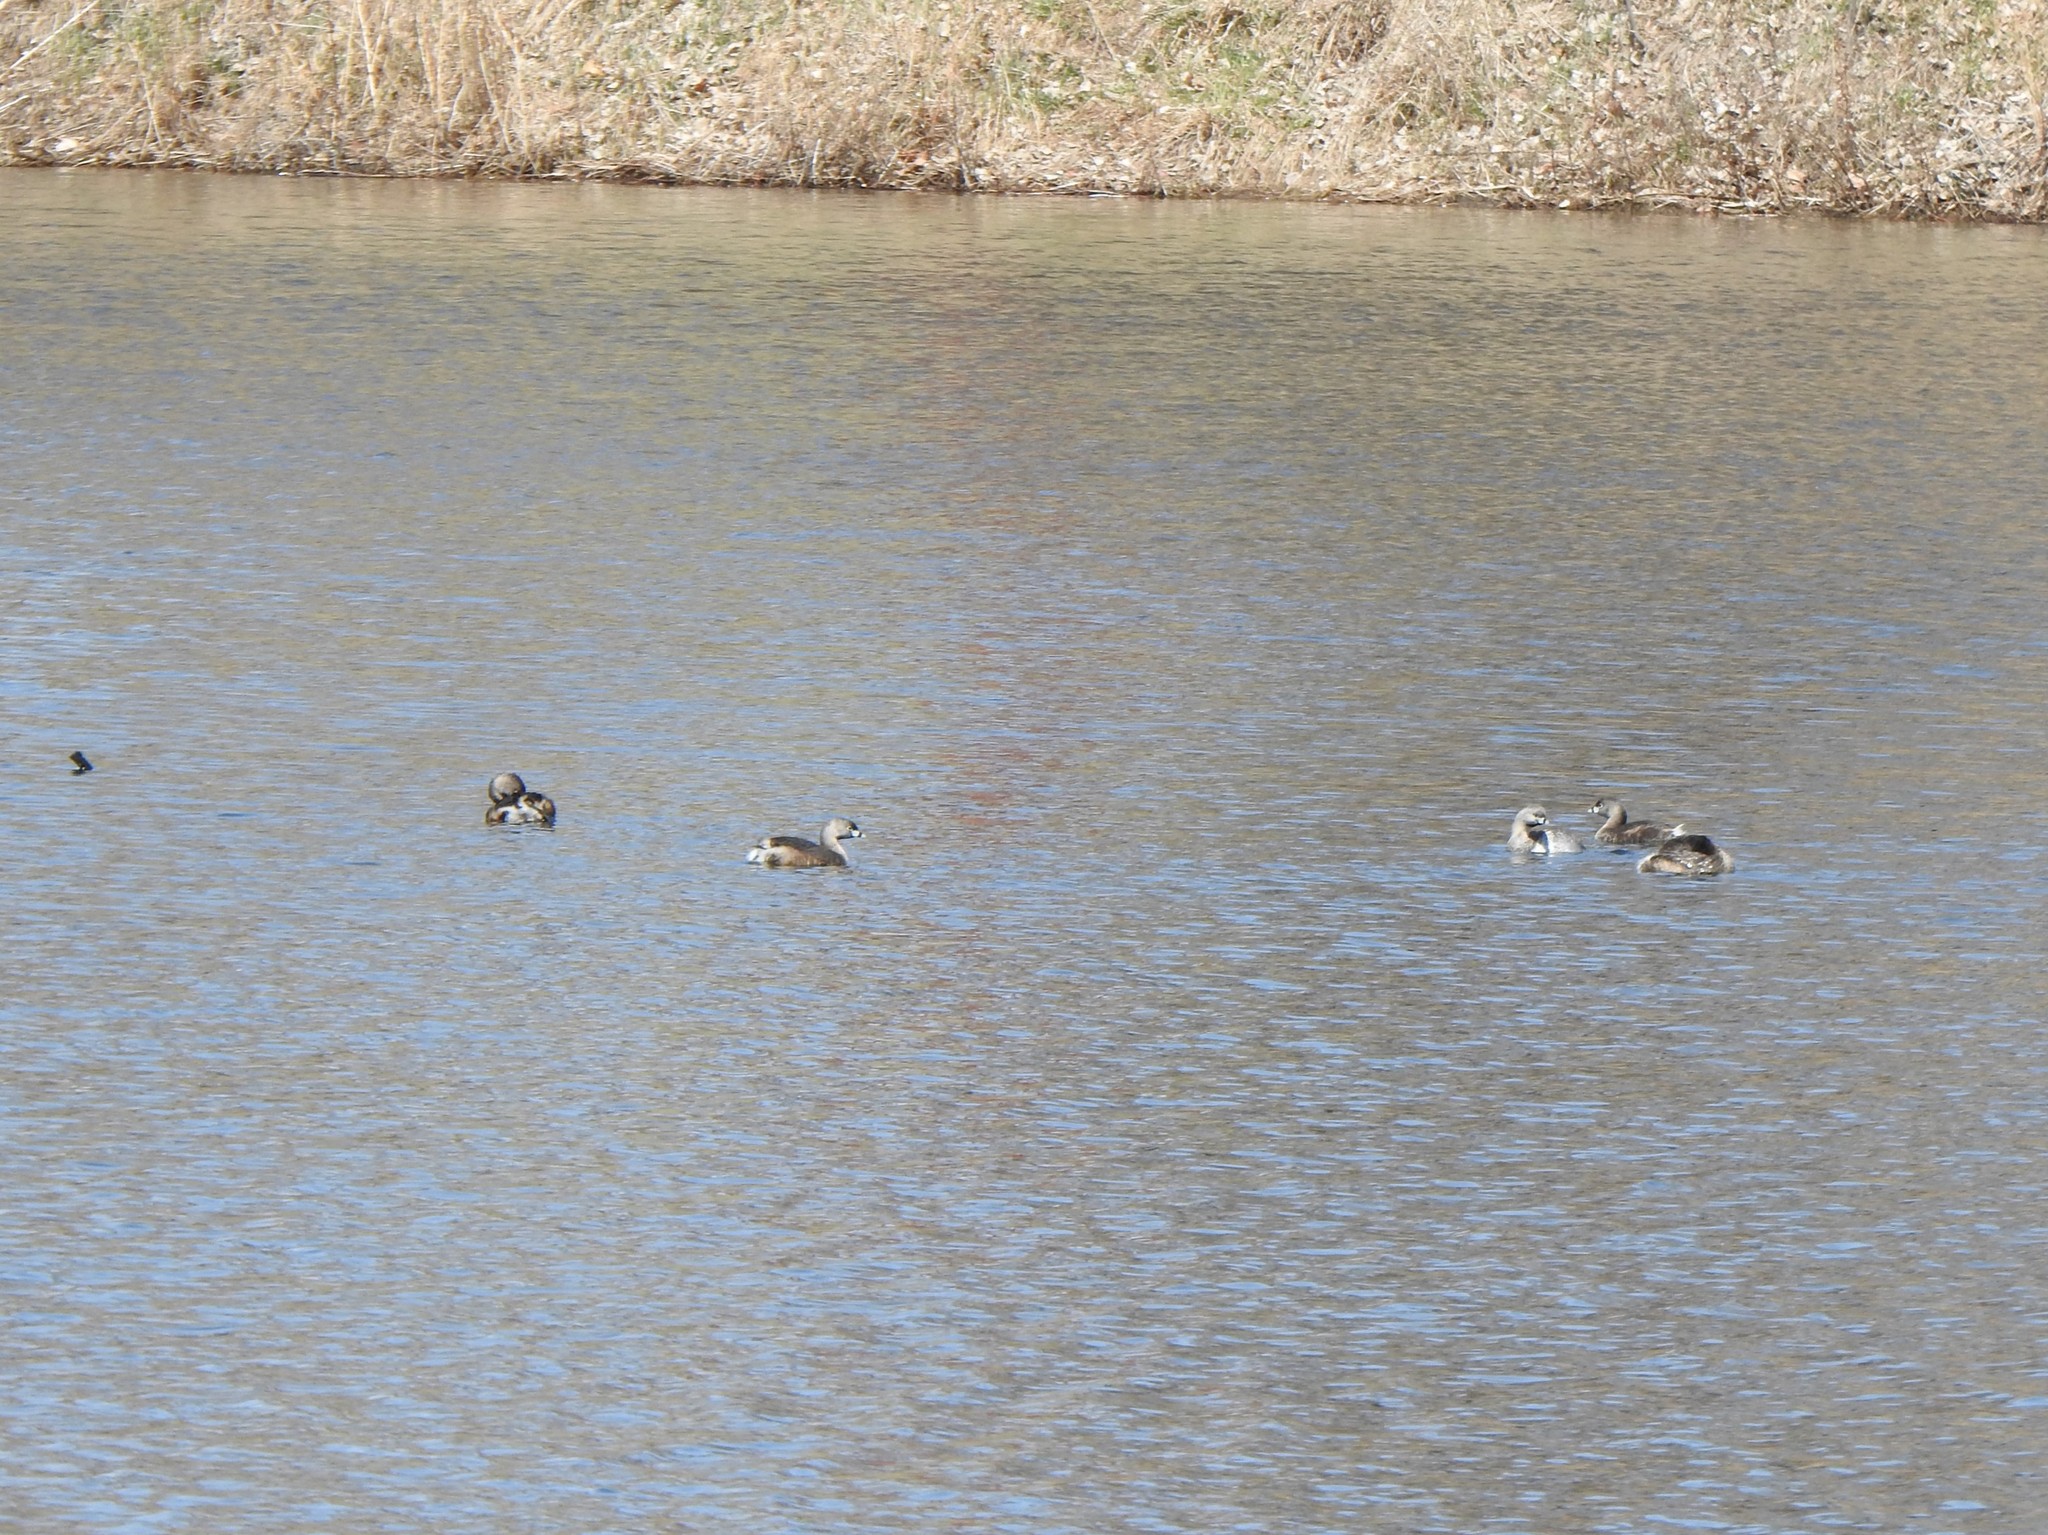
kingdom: Animalia
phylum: Chordata
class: Aves
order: Podicipediformes
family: Podicipedidae
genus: Podilymbus
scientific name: Podilymbus podiceps
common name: Pied-billed grebe
